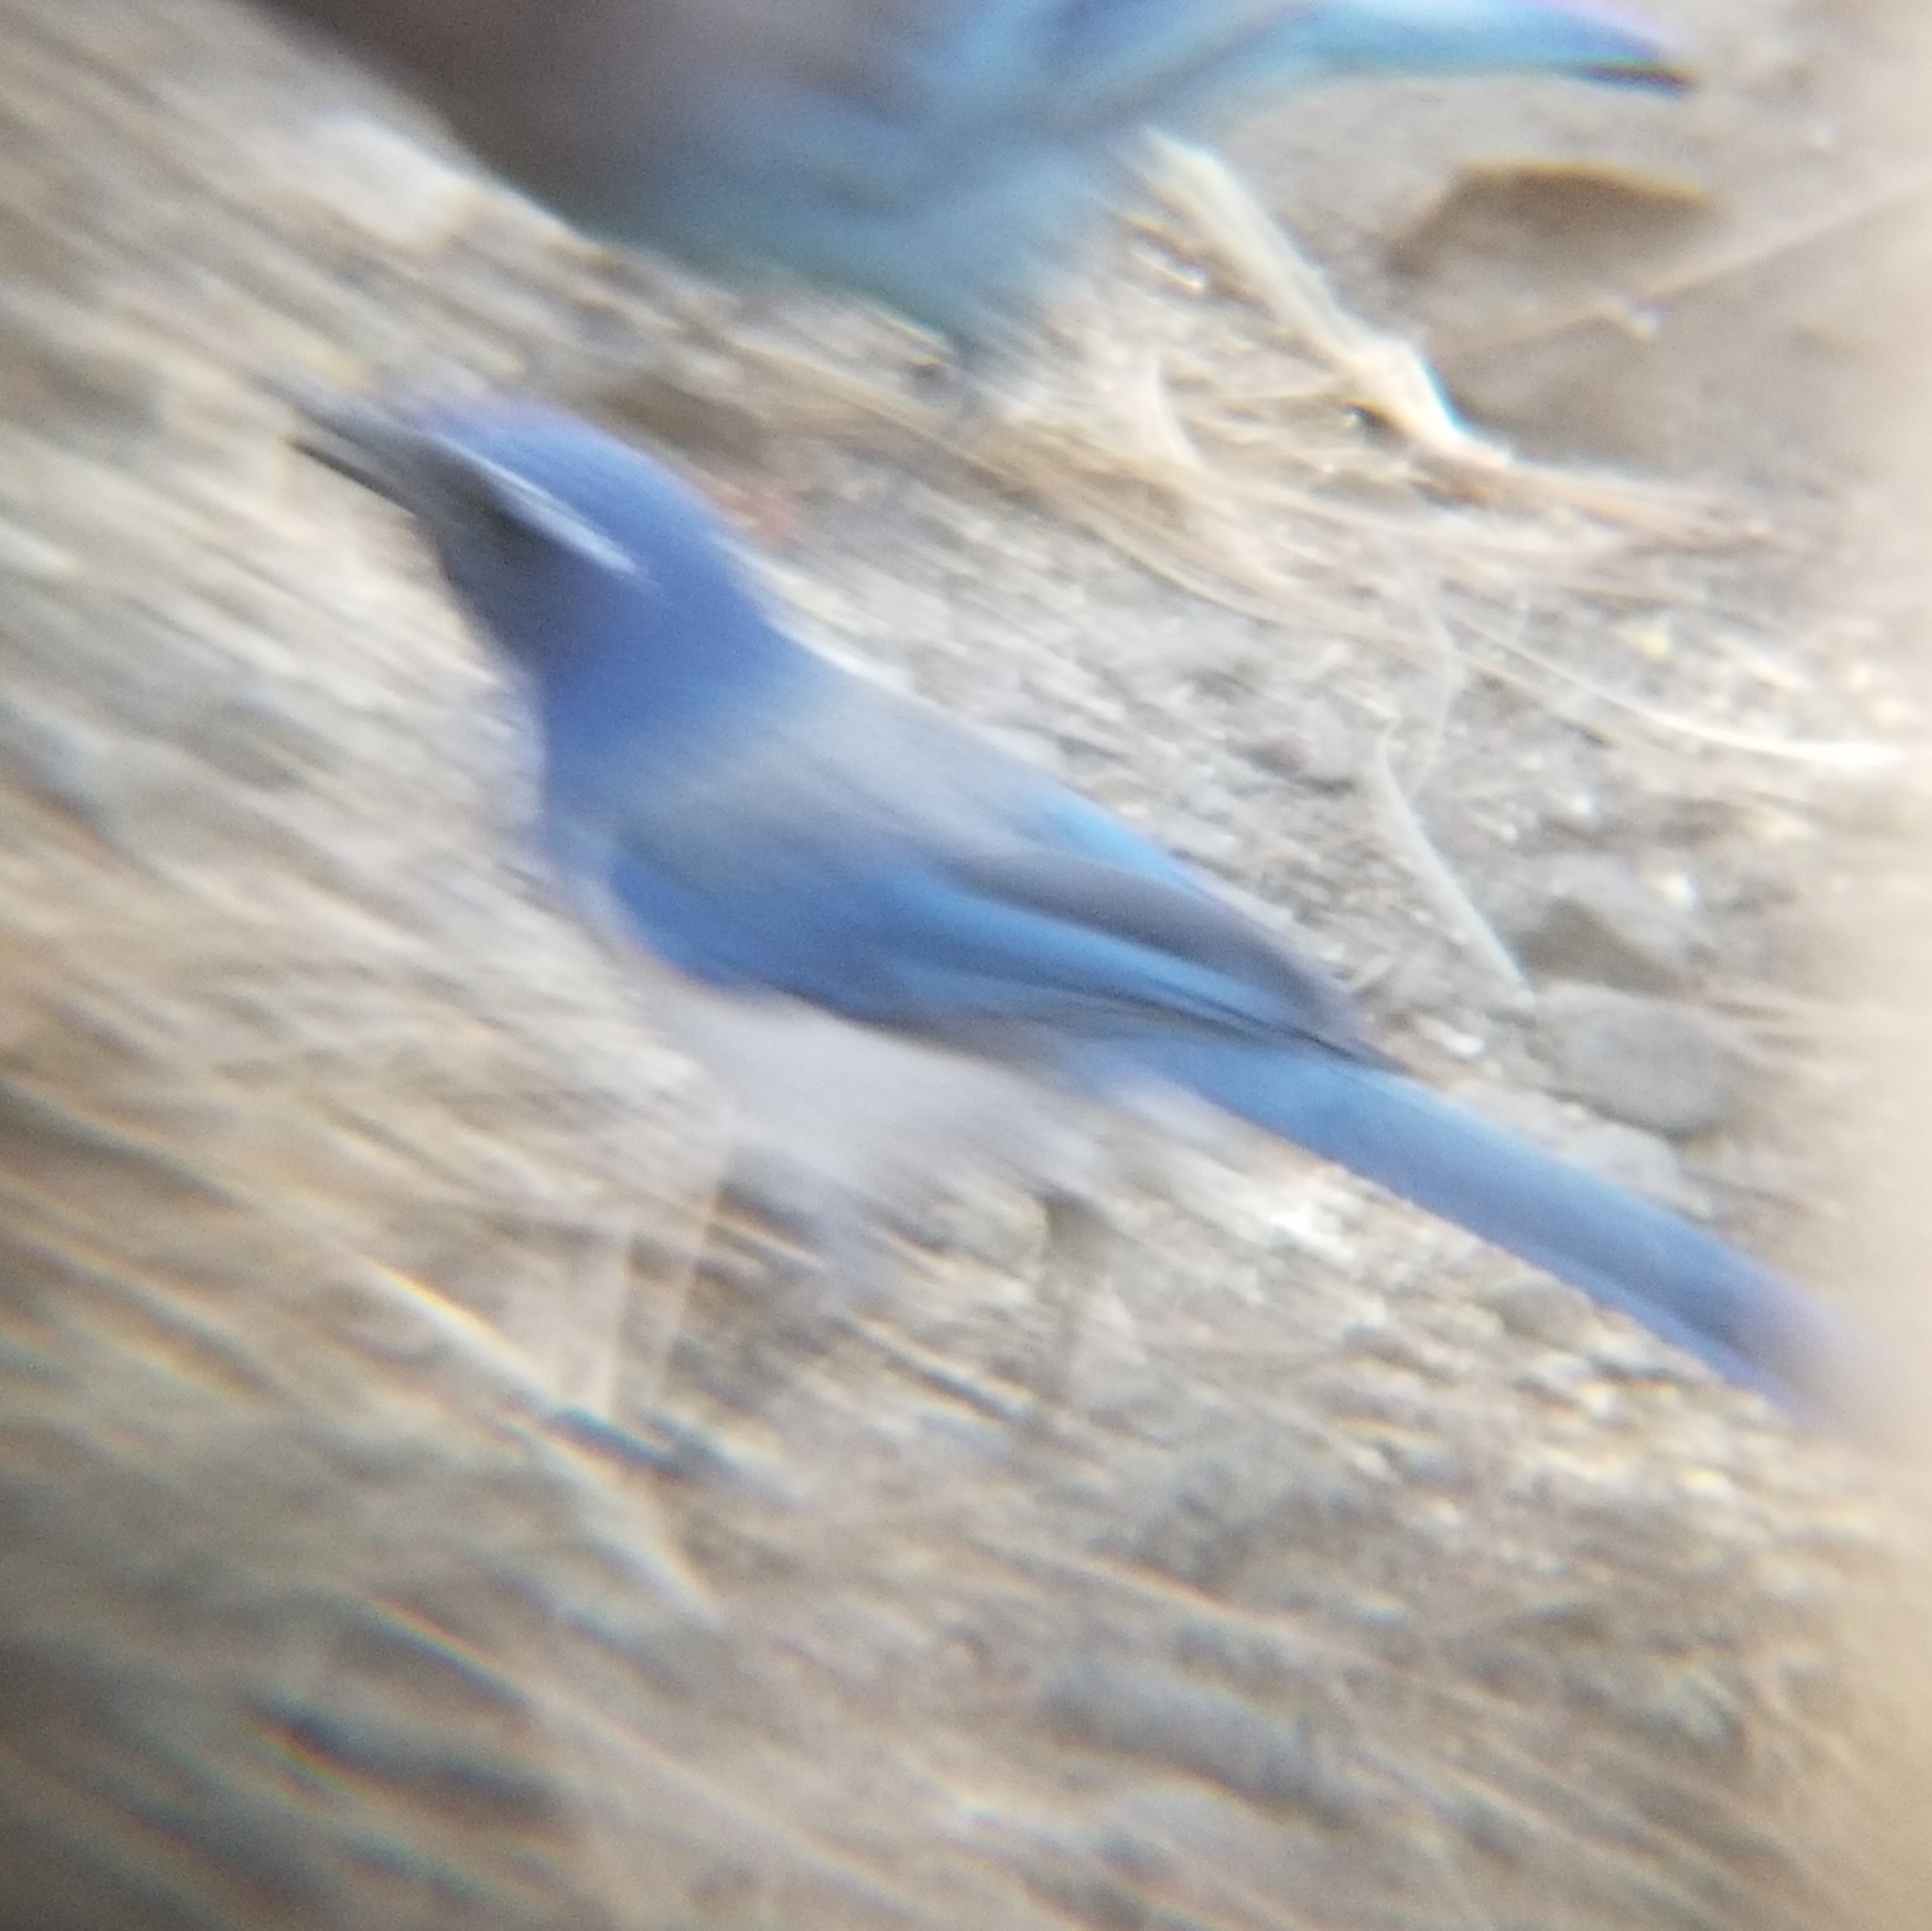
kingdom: Animalia
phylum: Chordata
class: Aves
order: Passeriformes
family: Corvidae
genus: Aphelocoma
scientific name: Aphelocoma californica
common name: California scrub-jay
